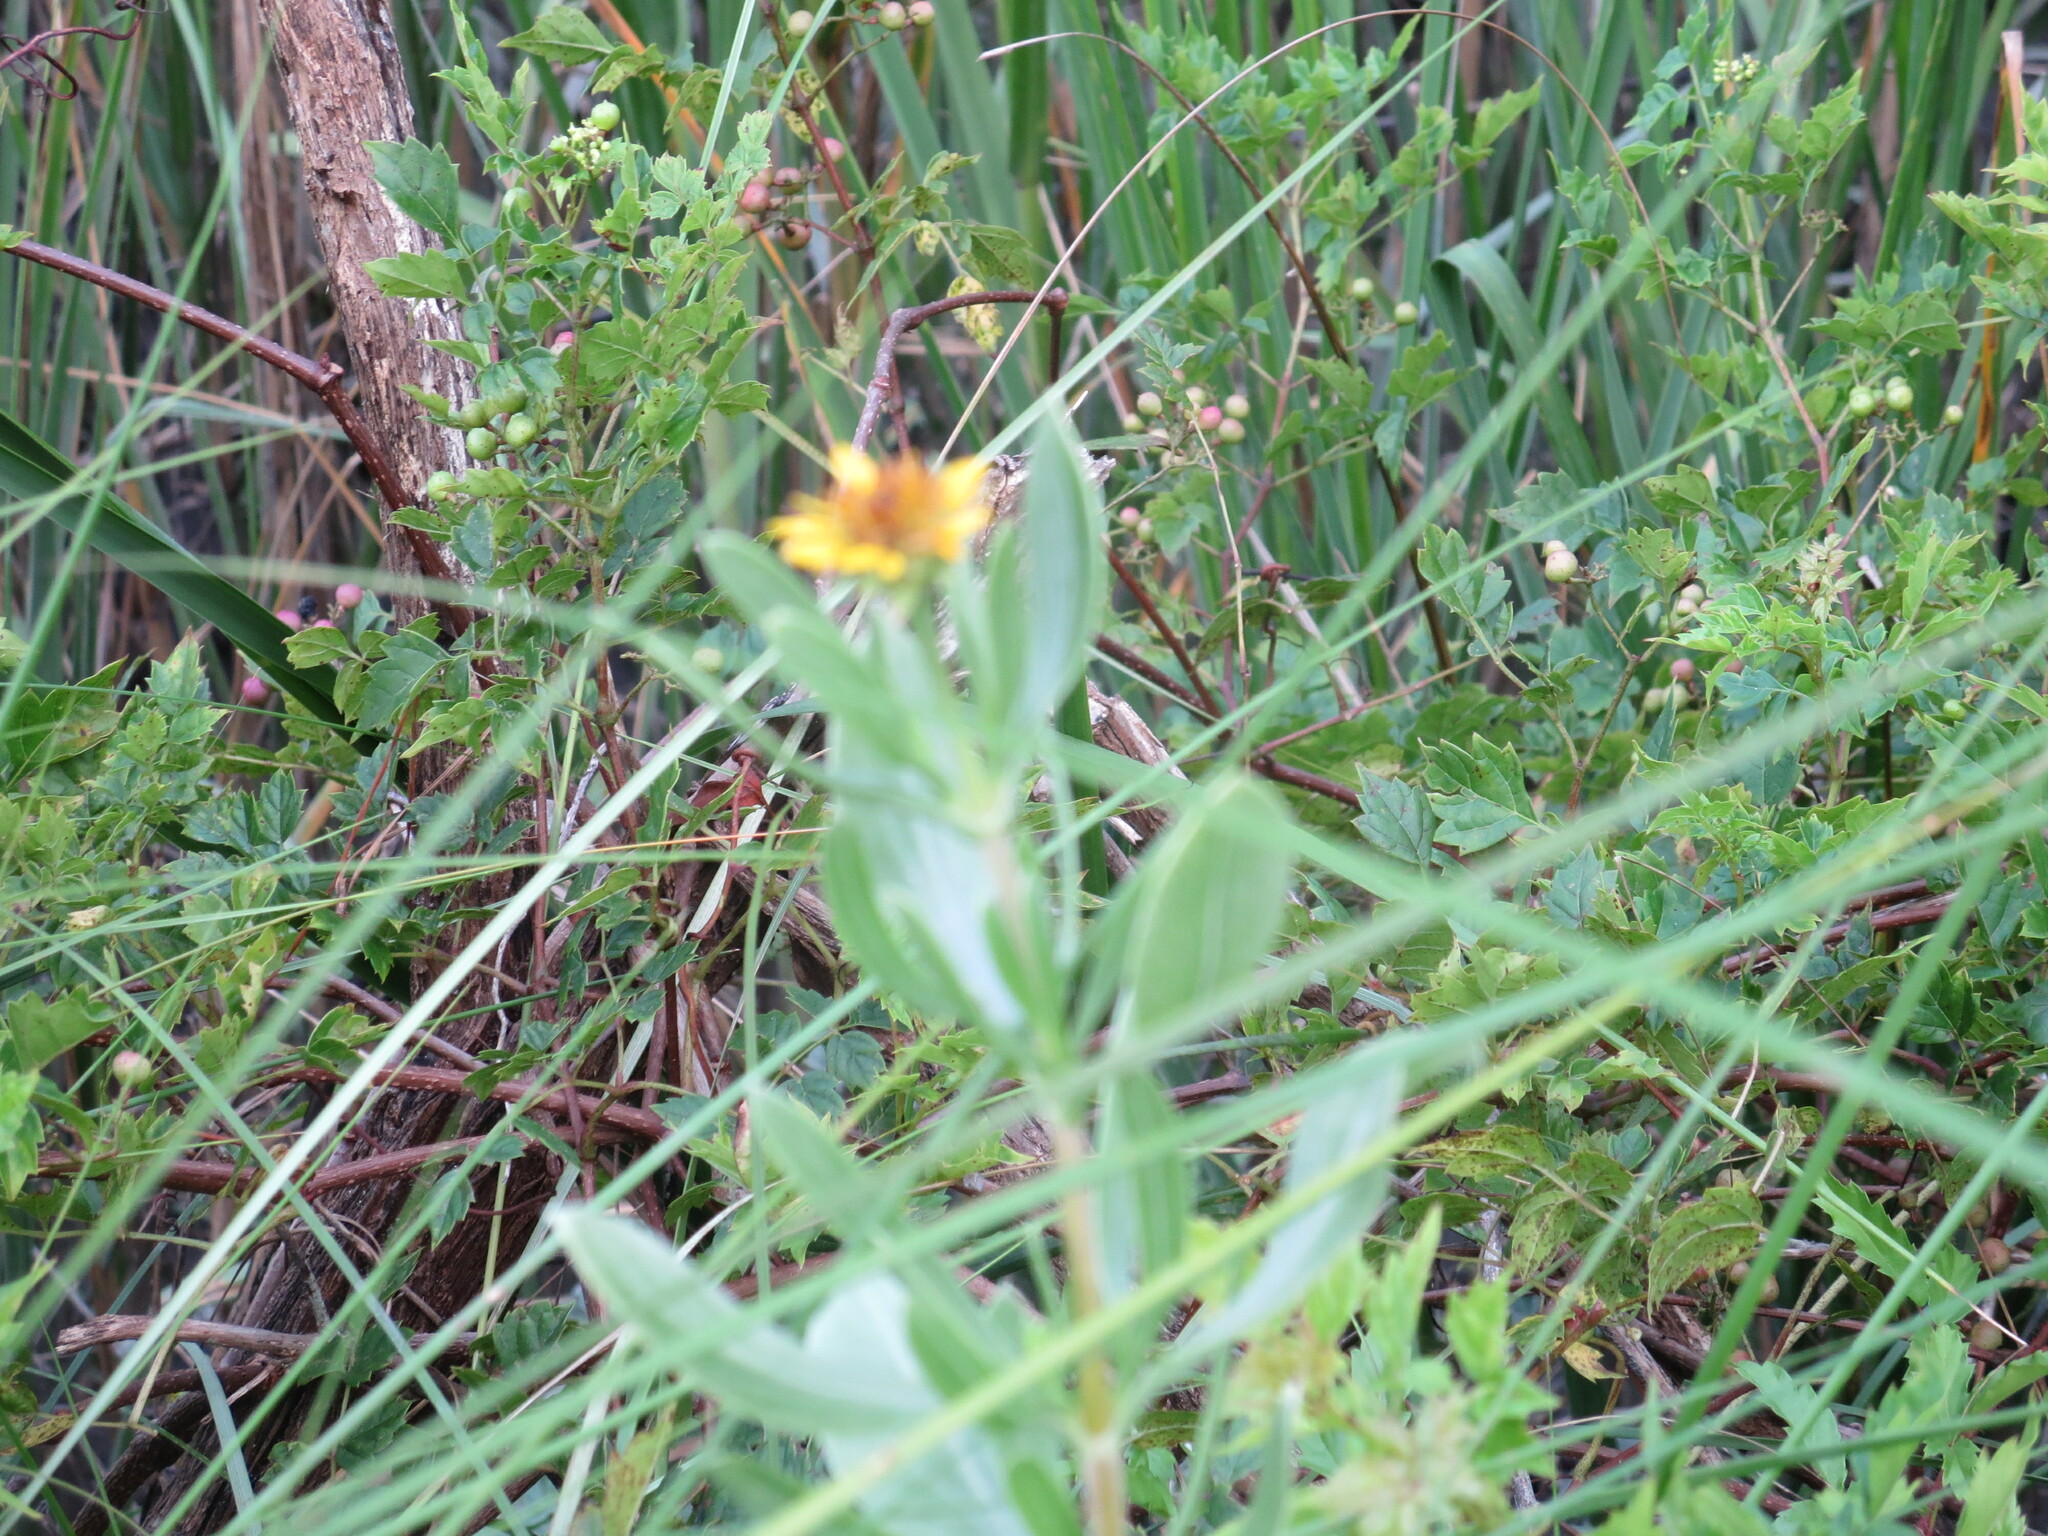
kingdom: Plantae
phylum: Tracheophyta
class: Magnoliopsida
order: Asterales
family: Asteraceae
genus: Borrichia
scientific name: Borrichia frutescens
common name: Sea oxeye
